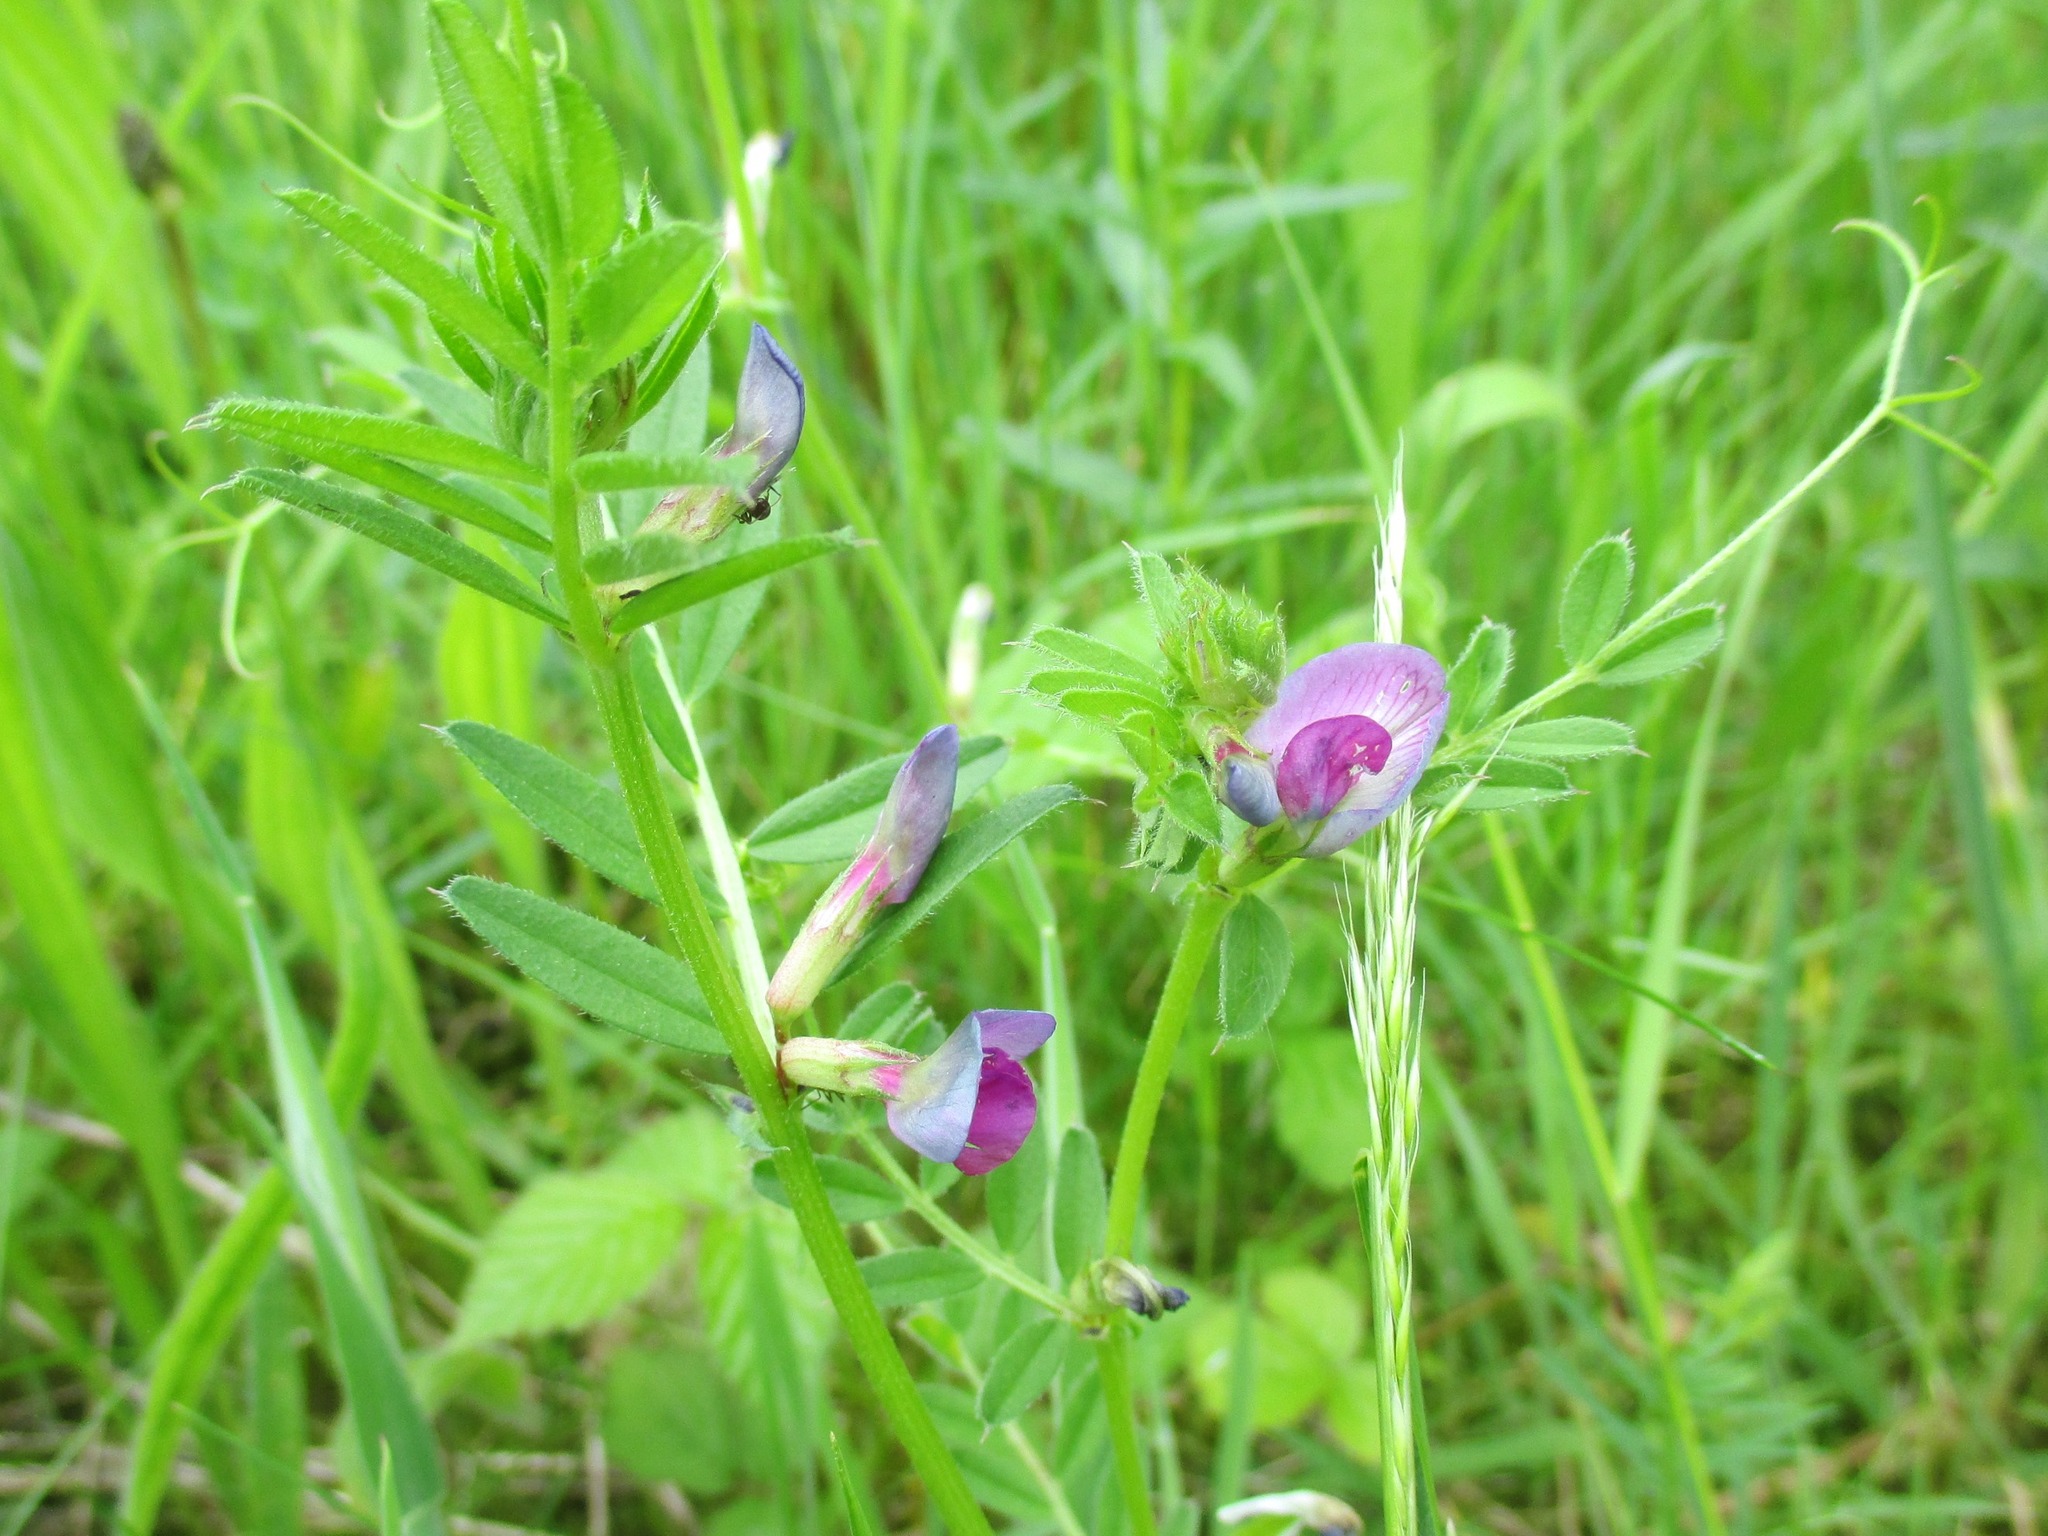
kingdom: Plantae
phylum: Tracheophyta
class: Magnoliopsida
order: Fabales
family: Fabaceae
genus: Vicia
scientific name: Vicia sativa
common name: Garden vetch
